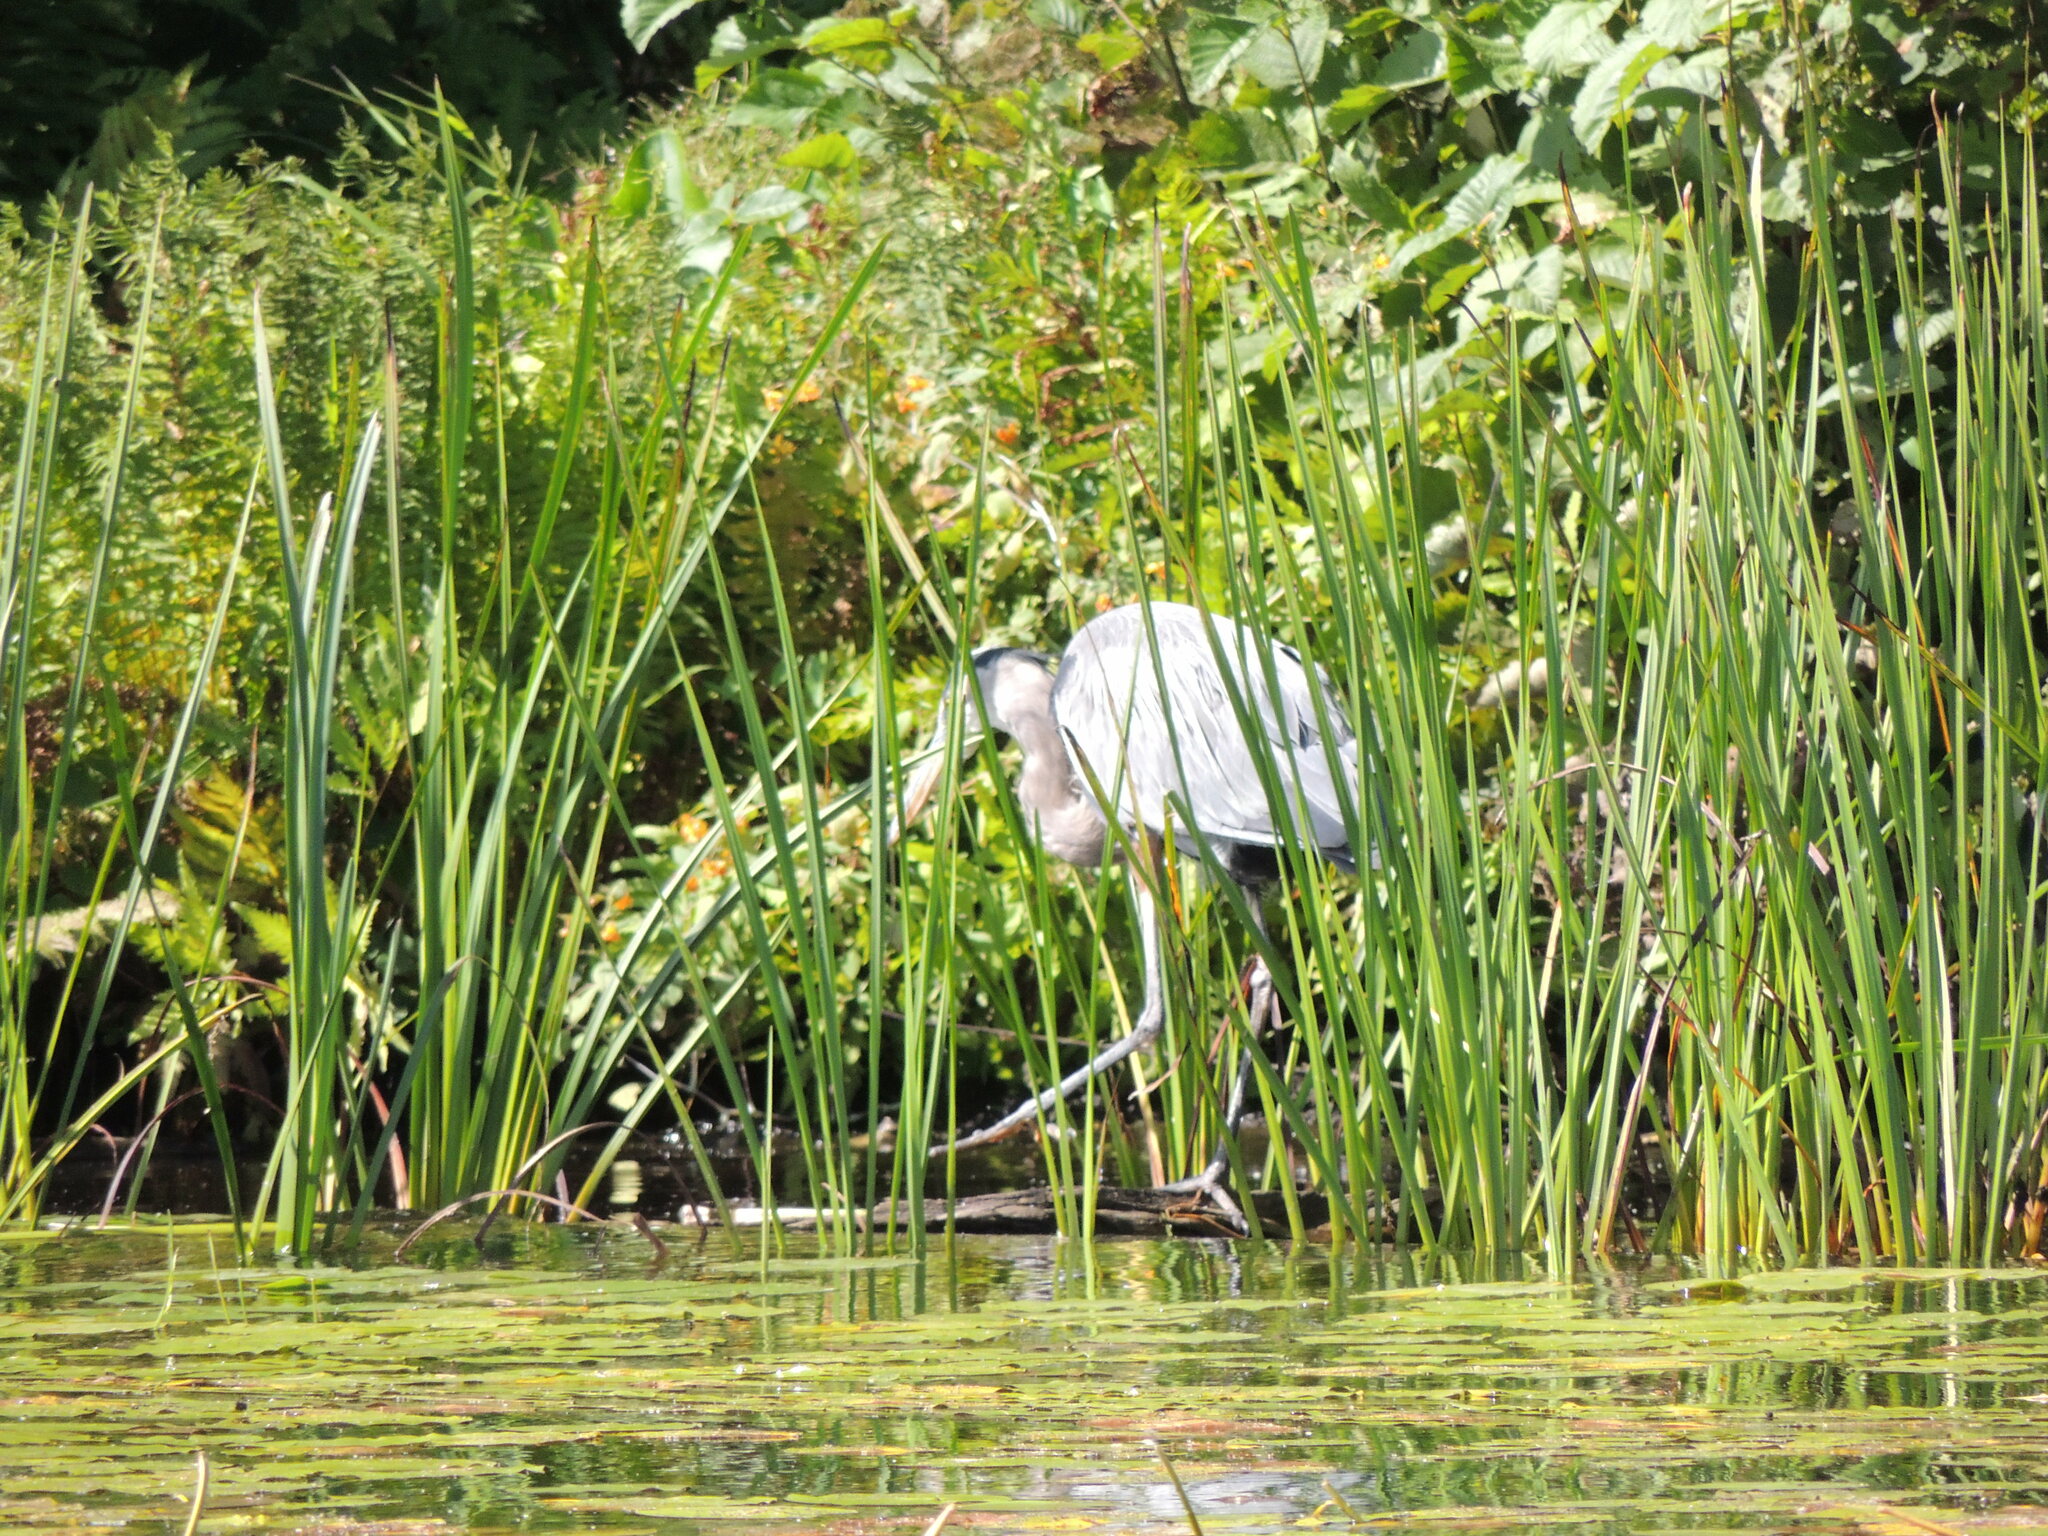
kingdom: Animalia
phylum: Chordata
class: Aves
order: Pelecaniformes
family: Ardeidae
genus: Ardea
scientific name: Ardea herodias
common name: Great blue heron
